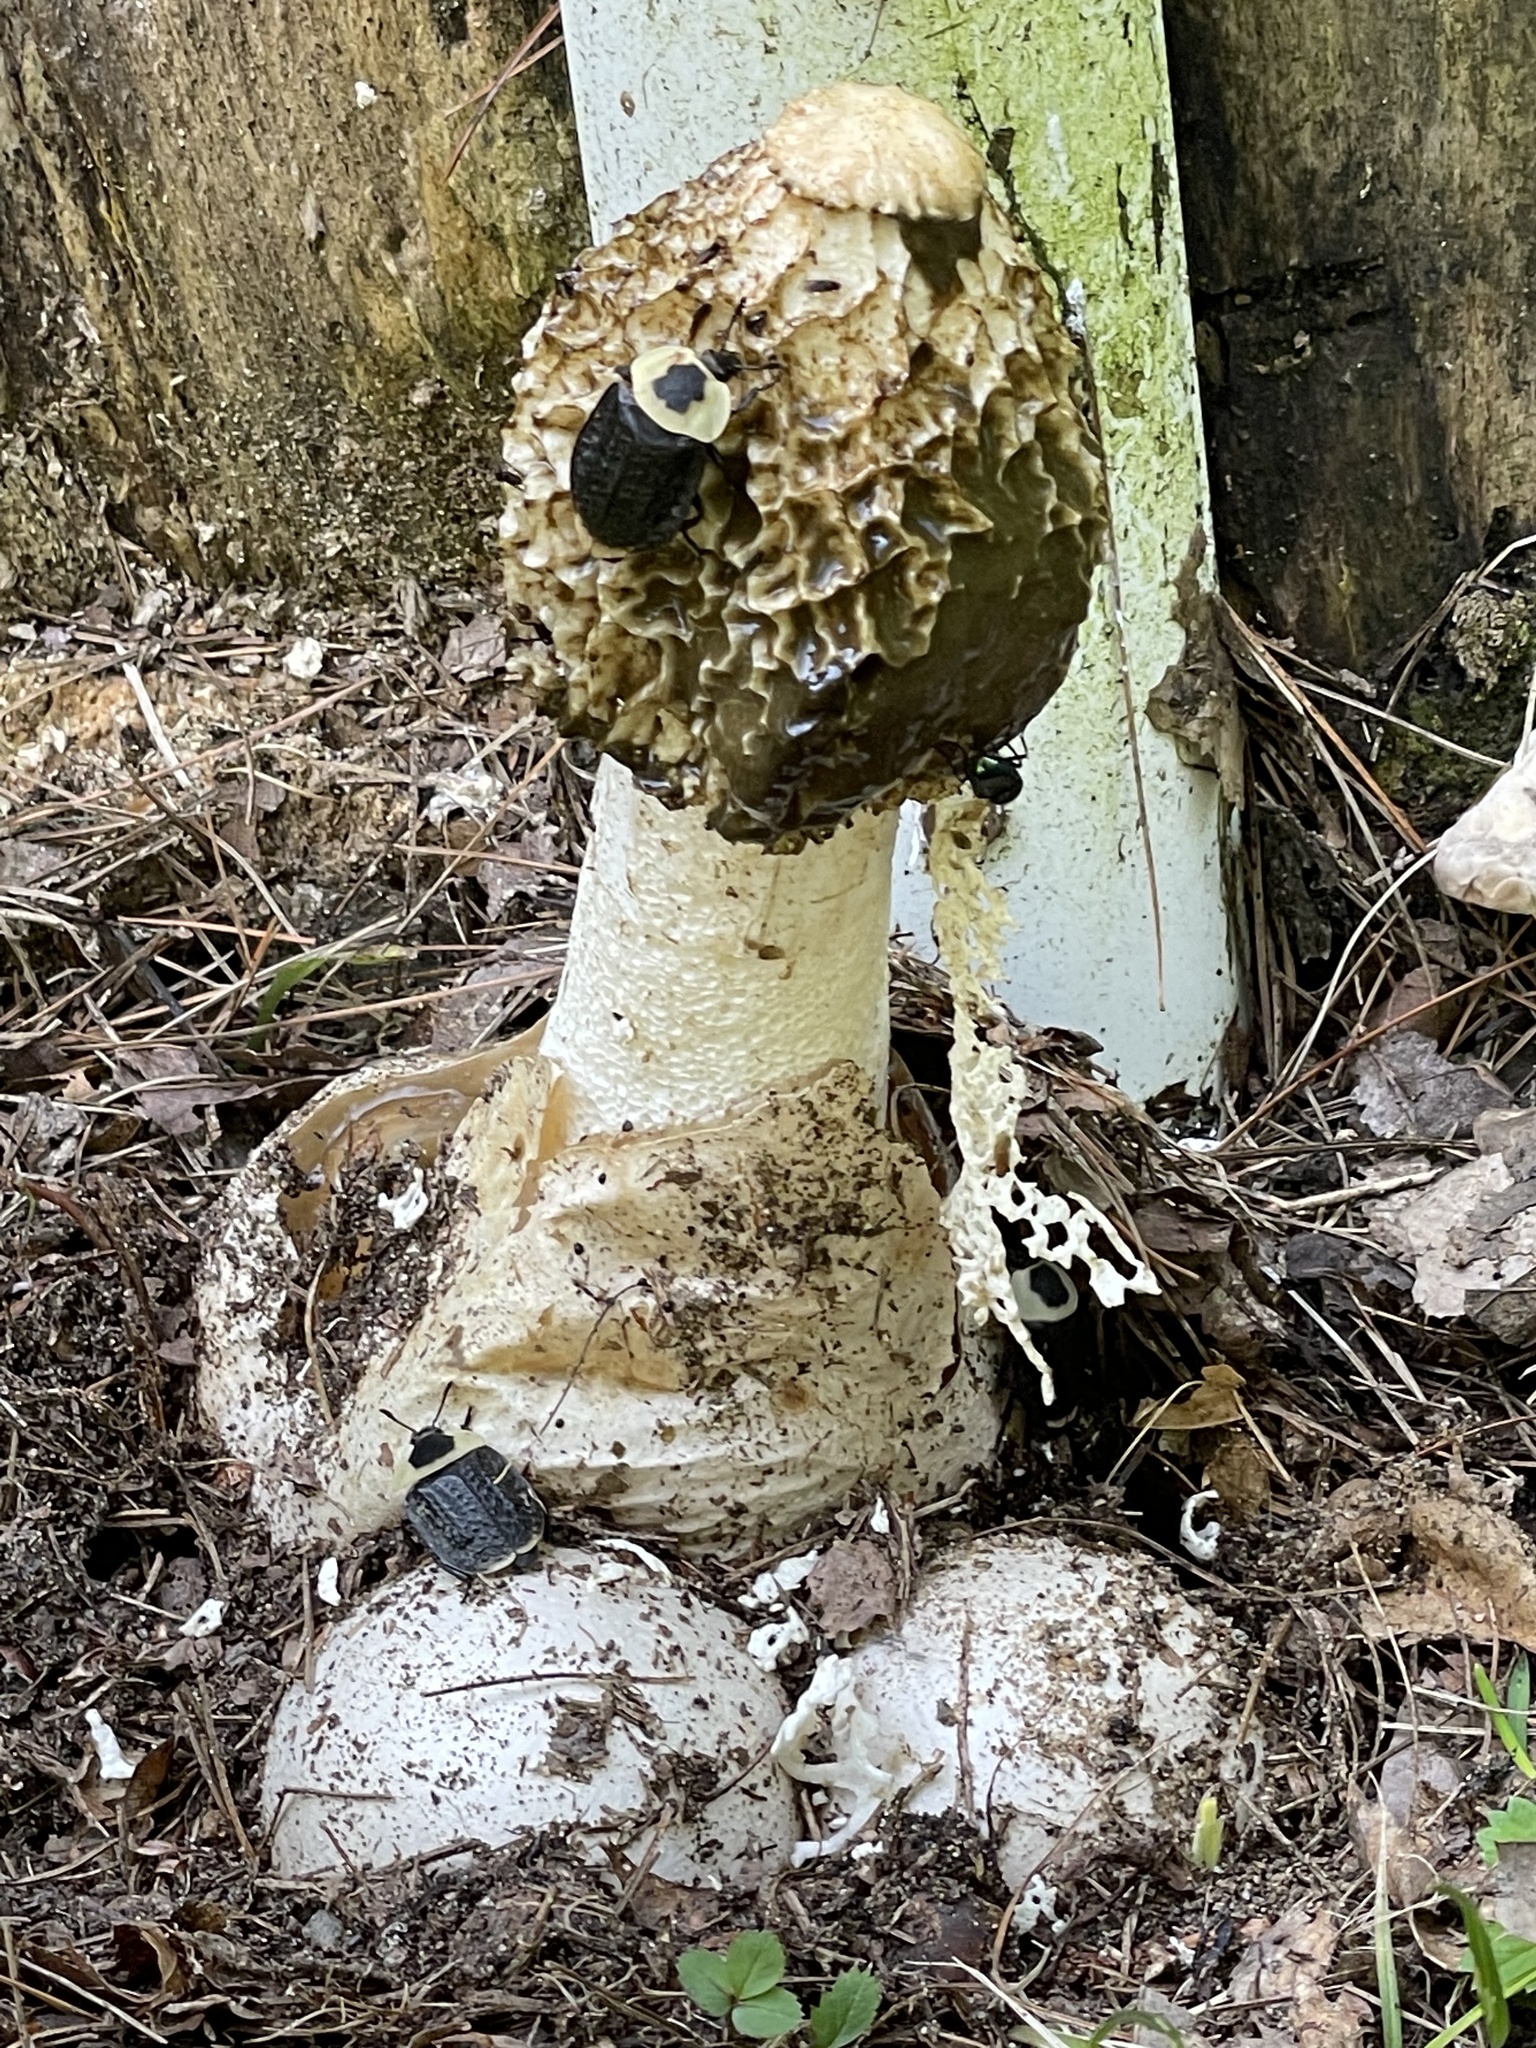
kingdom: Fungi
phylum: Basidiomycota
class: Agaricomycetes
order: Phallales
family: Phallaceae
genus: Phallus
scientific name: Phallus indusiatus
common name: Bridal veil stinkhorn
